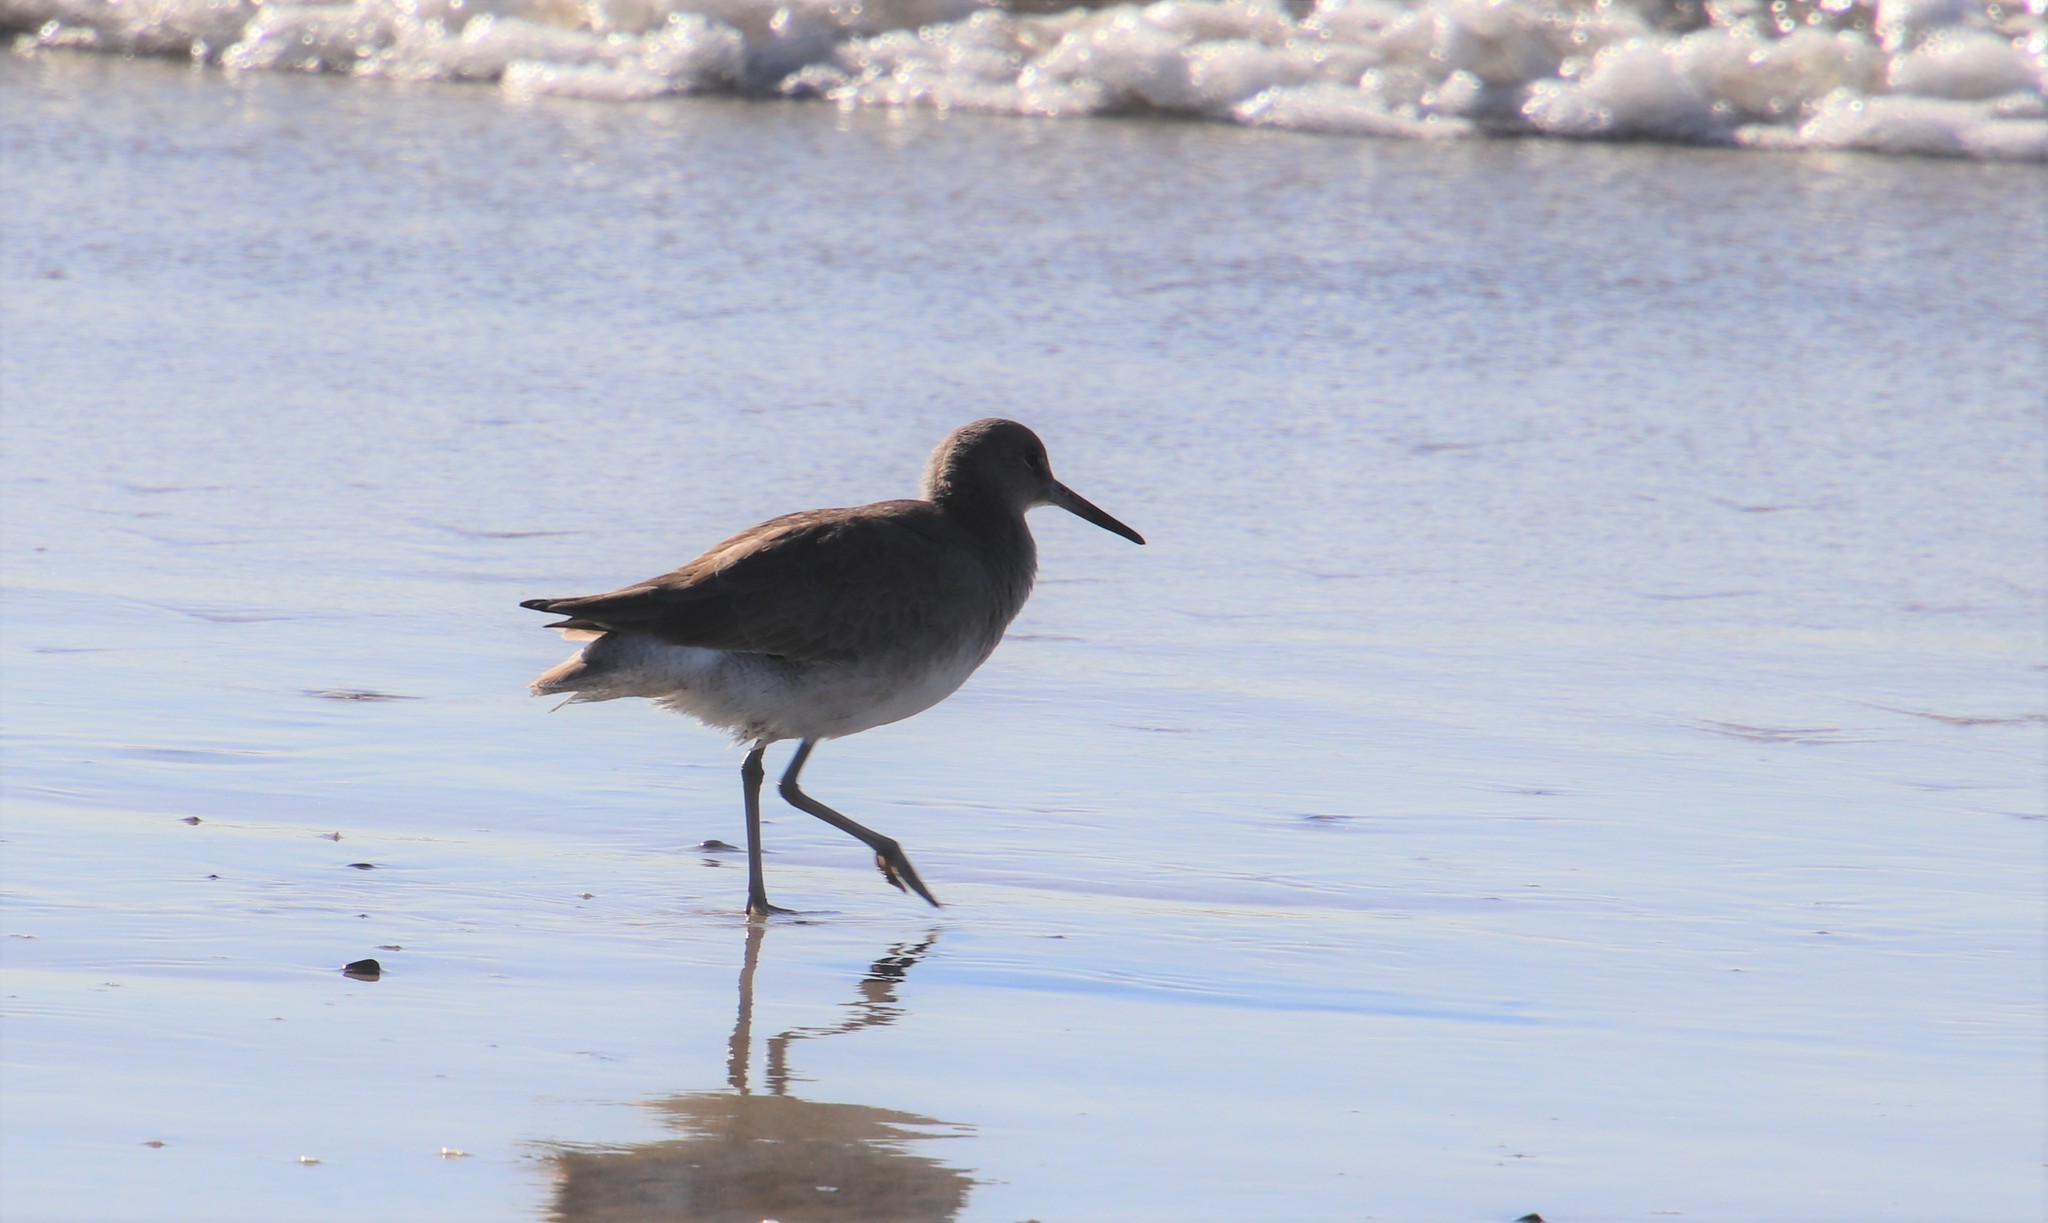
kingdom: Animalia
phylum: Chordata
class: Aves
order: Charadriiformes
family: Scolopacidae
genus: Tringa
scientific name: Tringa semipalmata
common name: Willet
